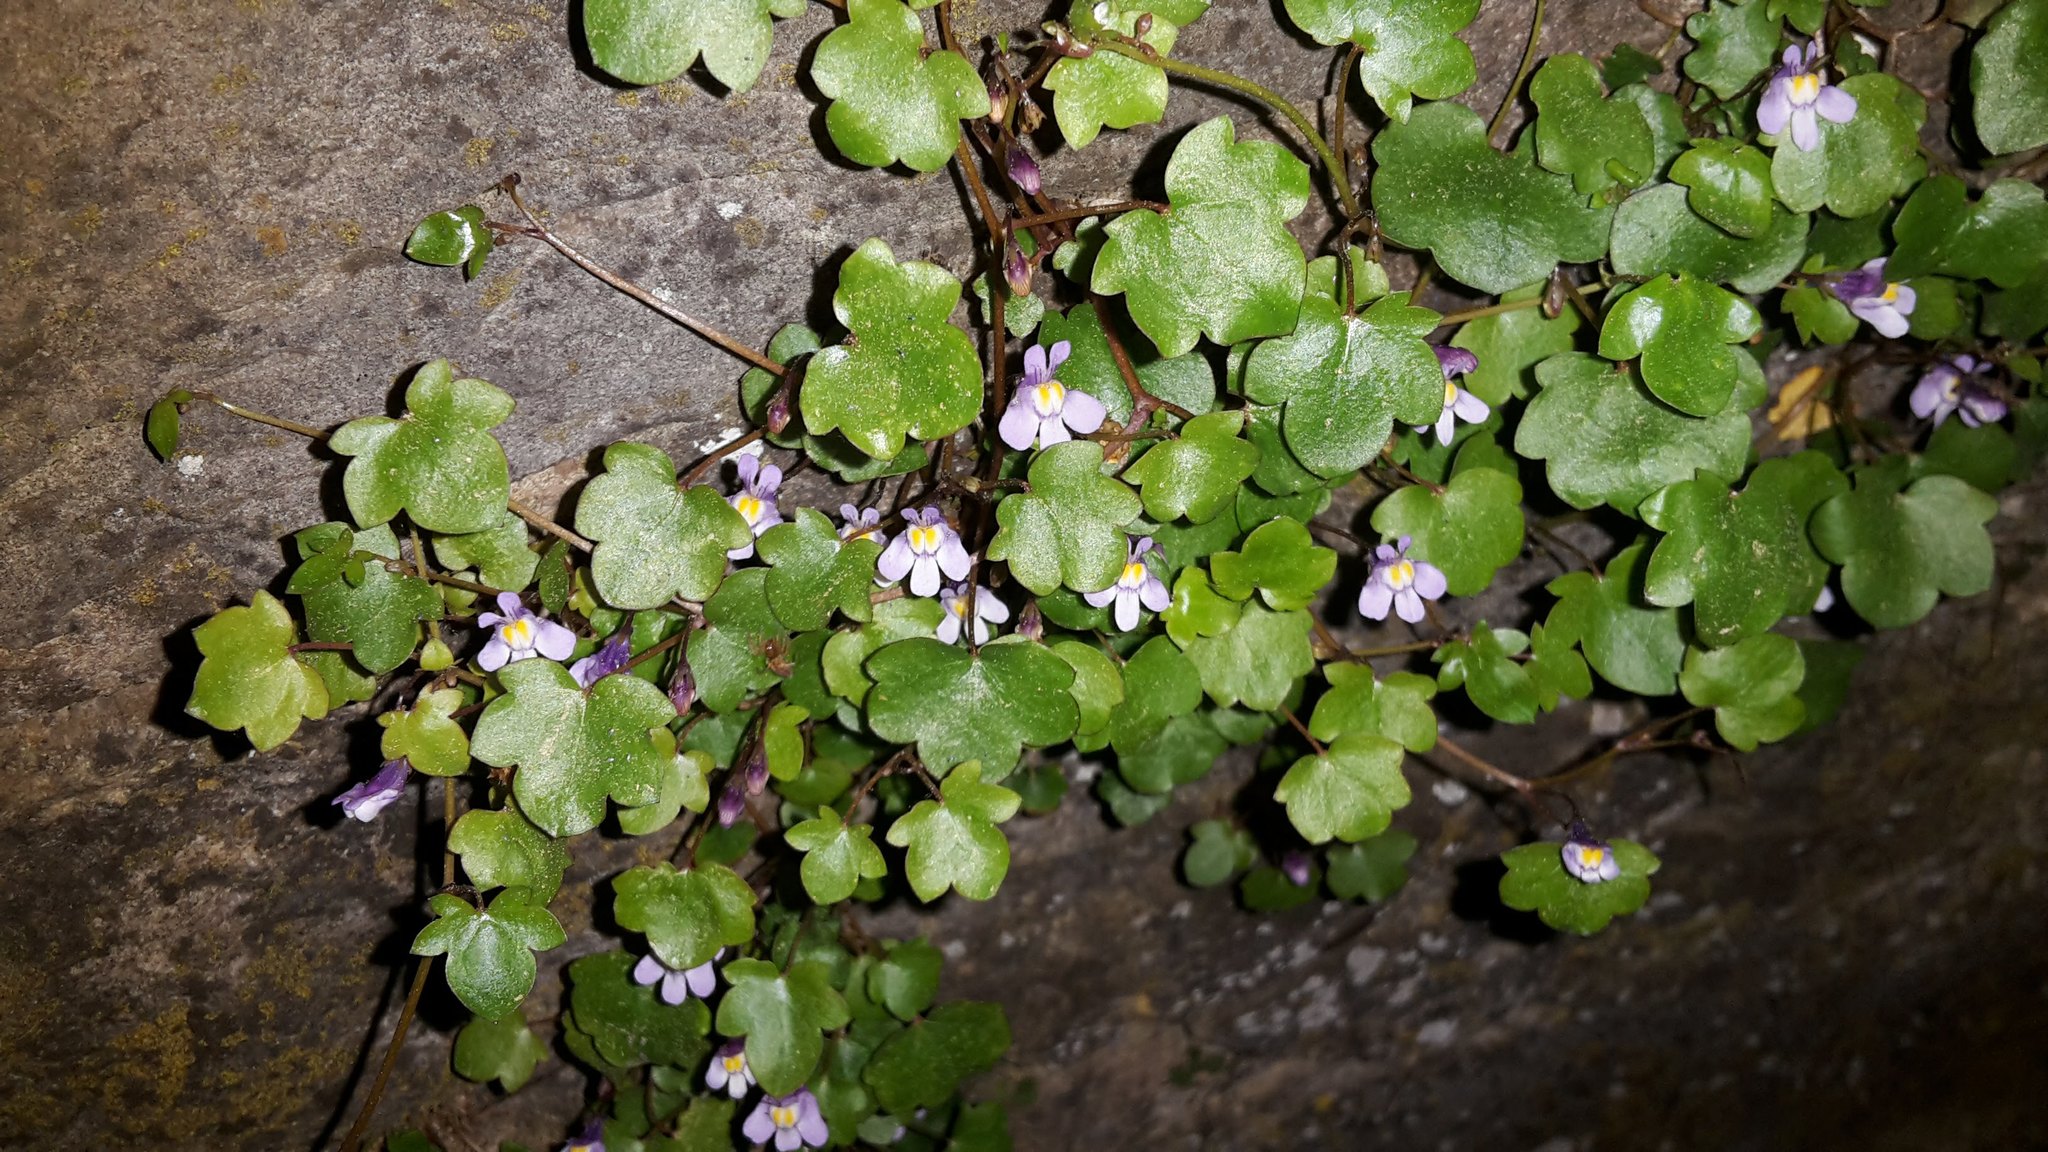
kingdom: Plantae
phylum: Tracheophyta
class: Magnoliopsida
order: Lamiales
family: Plantaginaceae
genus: Cymbalaria
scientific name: Cymbalaria muralis
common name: Ivy-leaved toadflax
